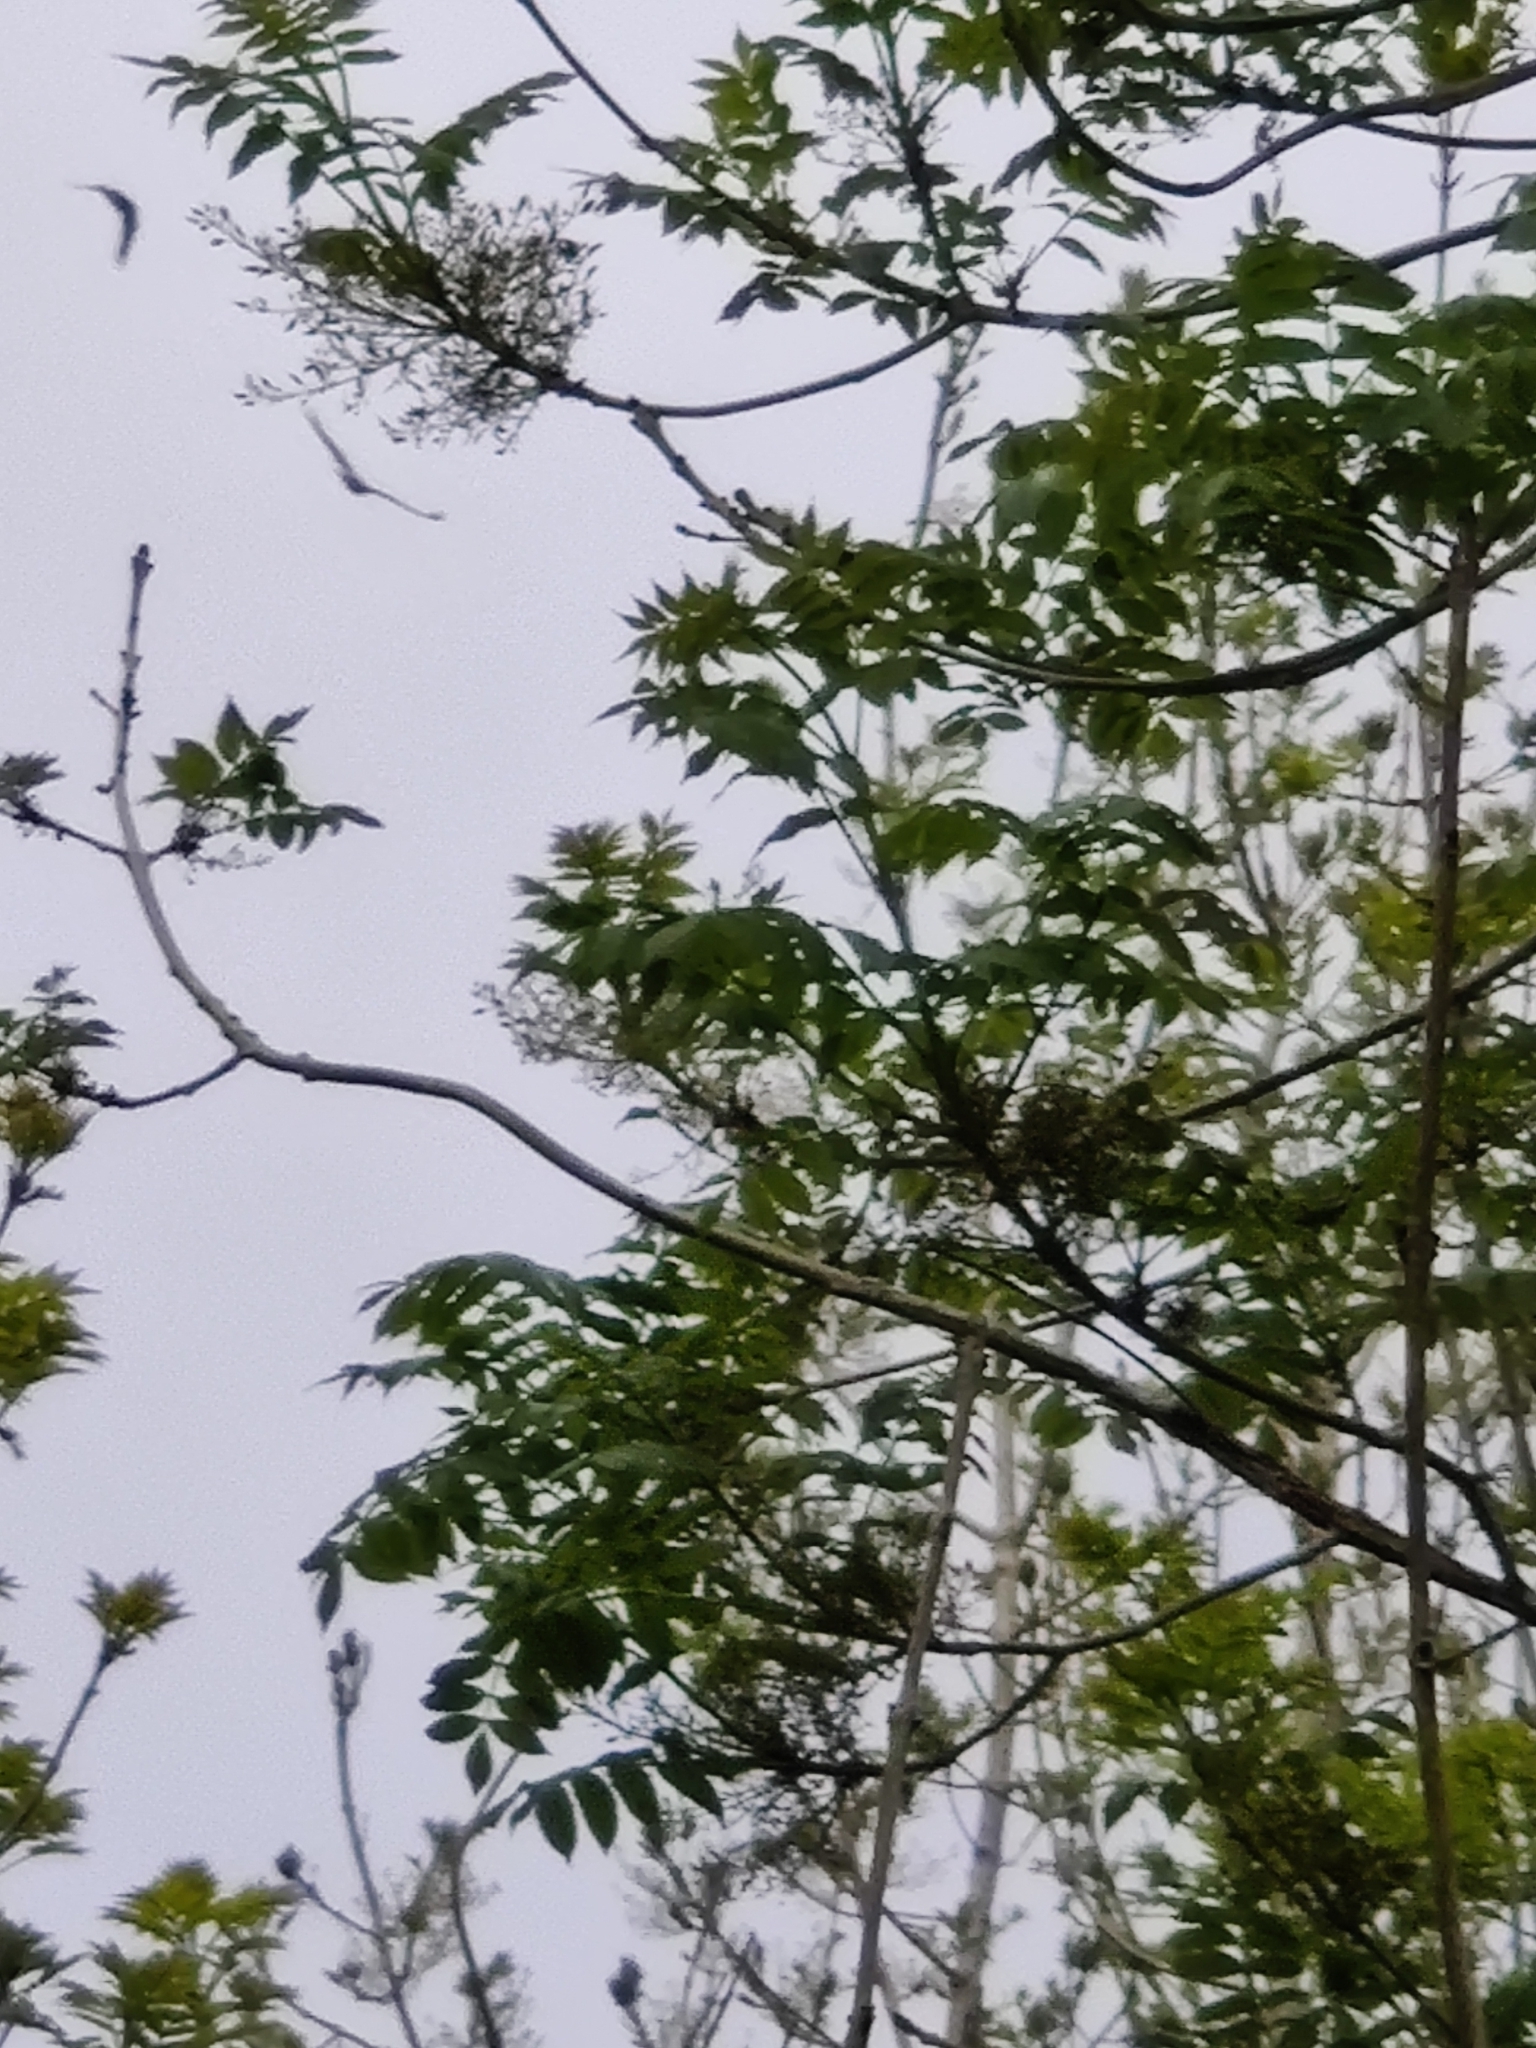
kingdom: Animalia
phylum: Chordata
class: Aves
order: Accipitriformes
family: Accipitridae
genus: Buteo
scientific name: Buteo buteo
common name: Common buzzard
